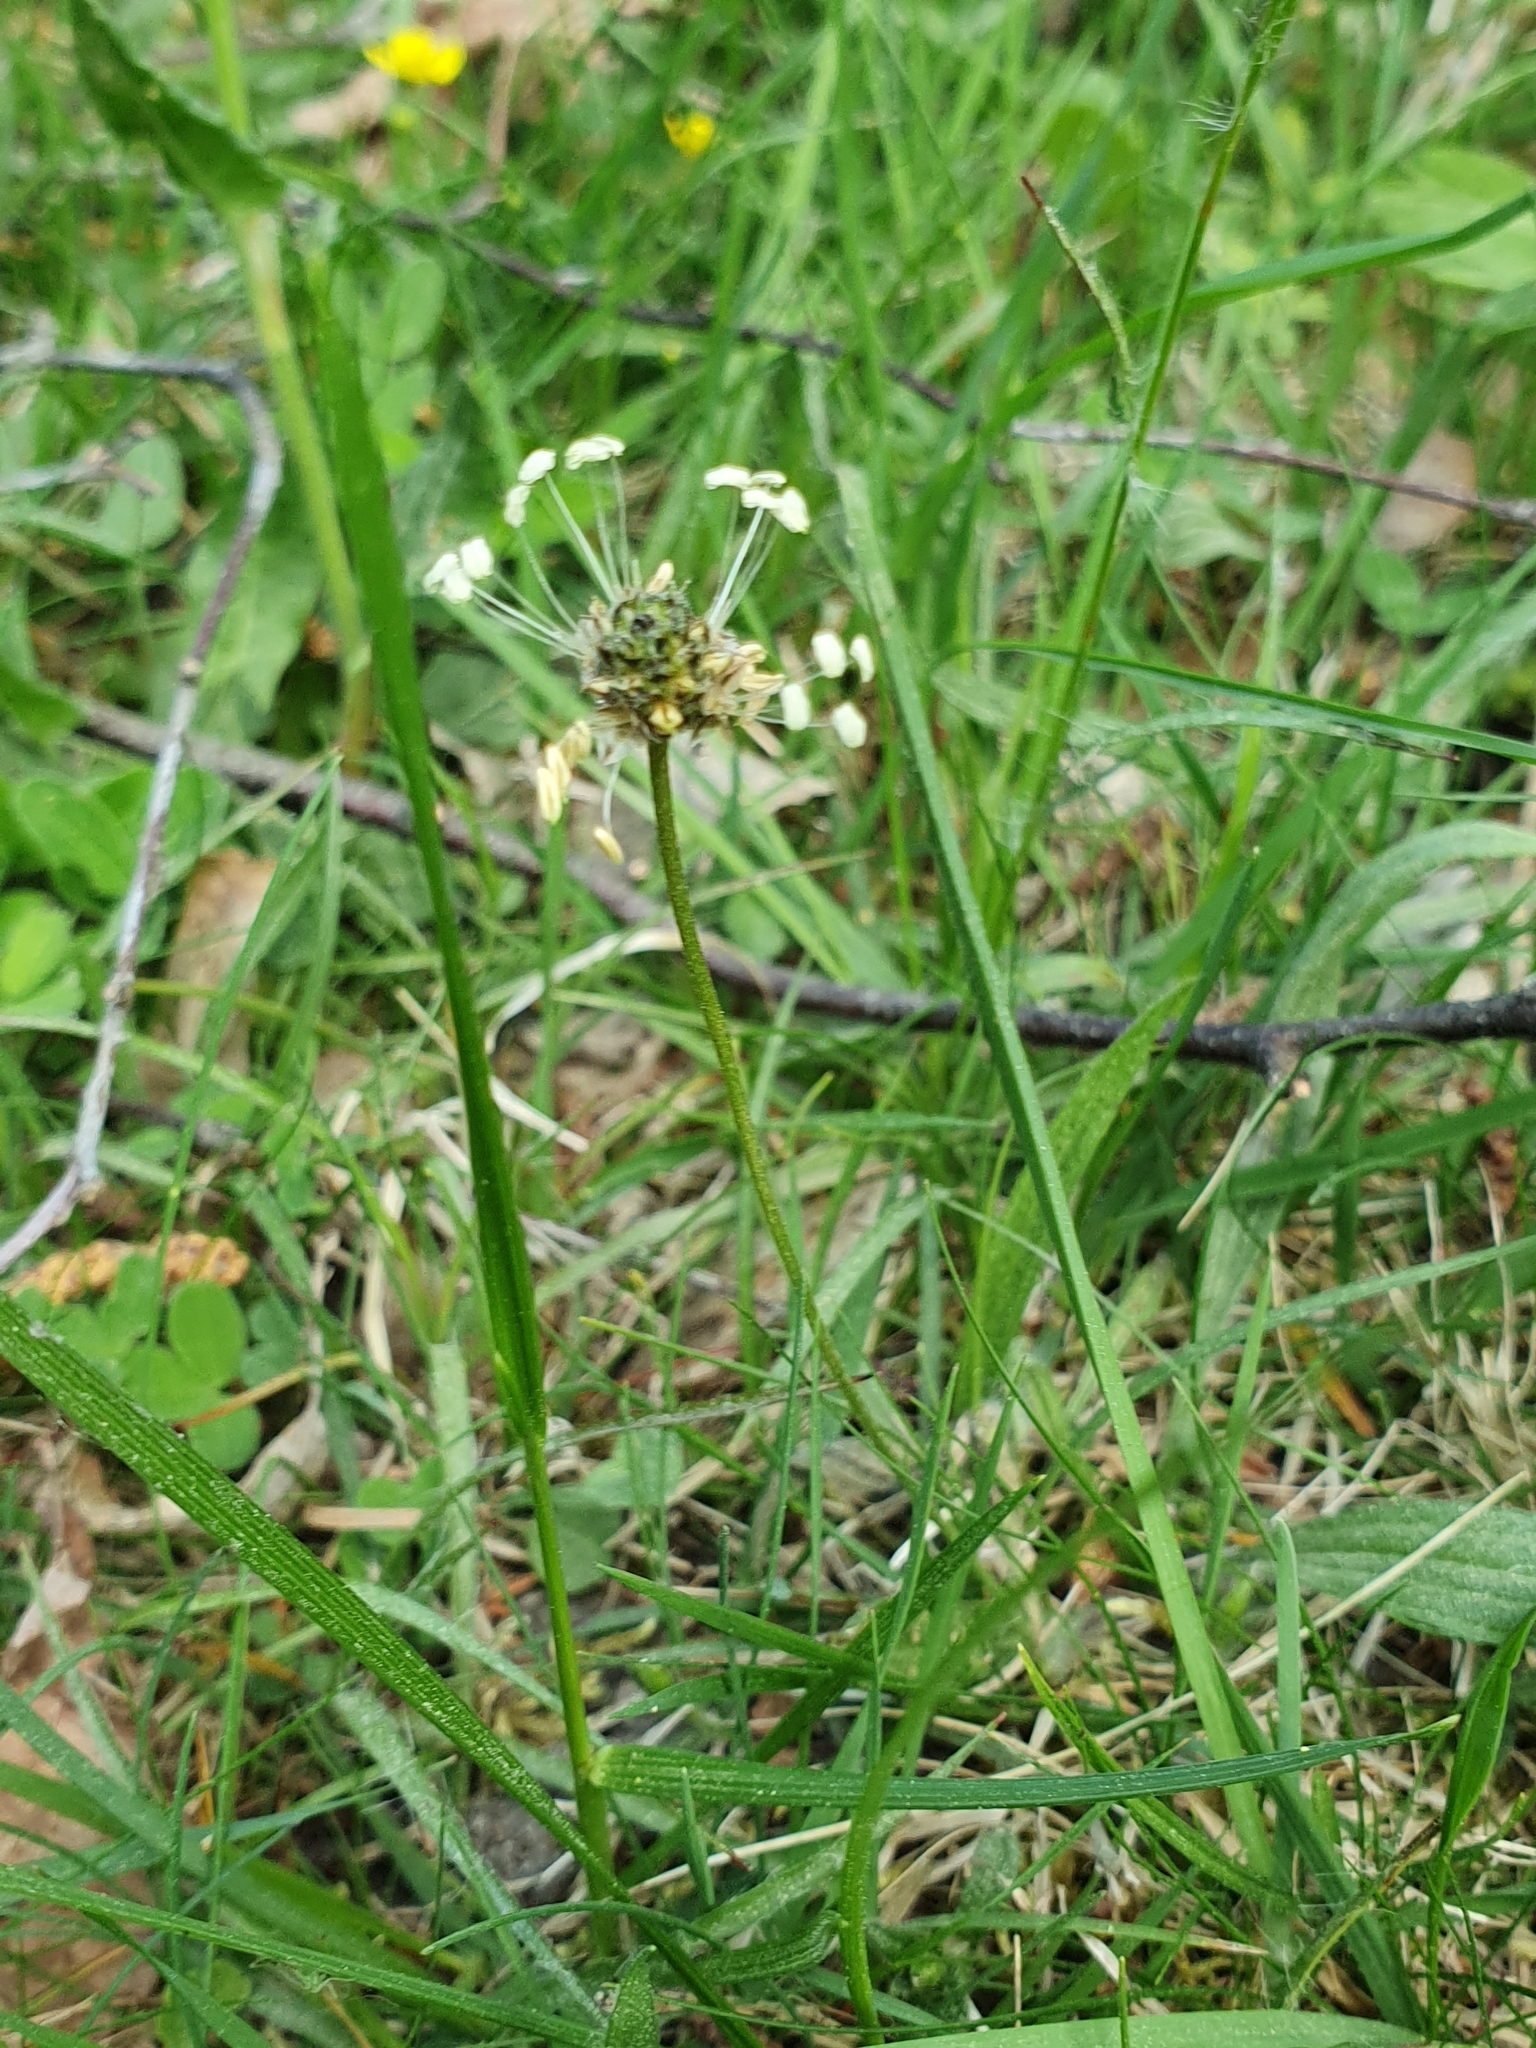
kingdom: Plantae
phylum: Tracheophyta
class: Magnoliopsida
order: Lamiales
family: Plantaginaceae
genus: Plantago
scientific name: Plantago lanceolata
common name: Ribwort plantain
